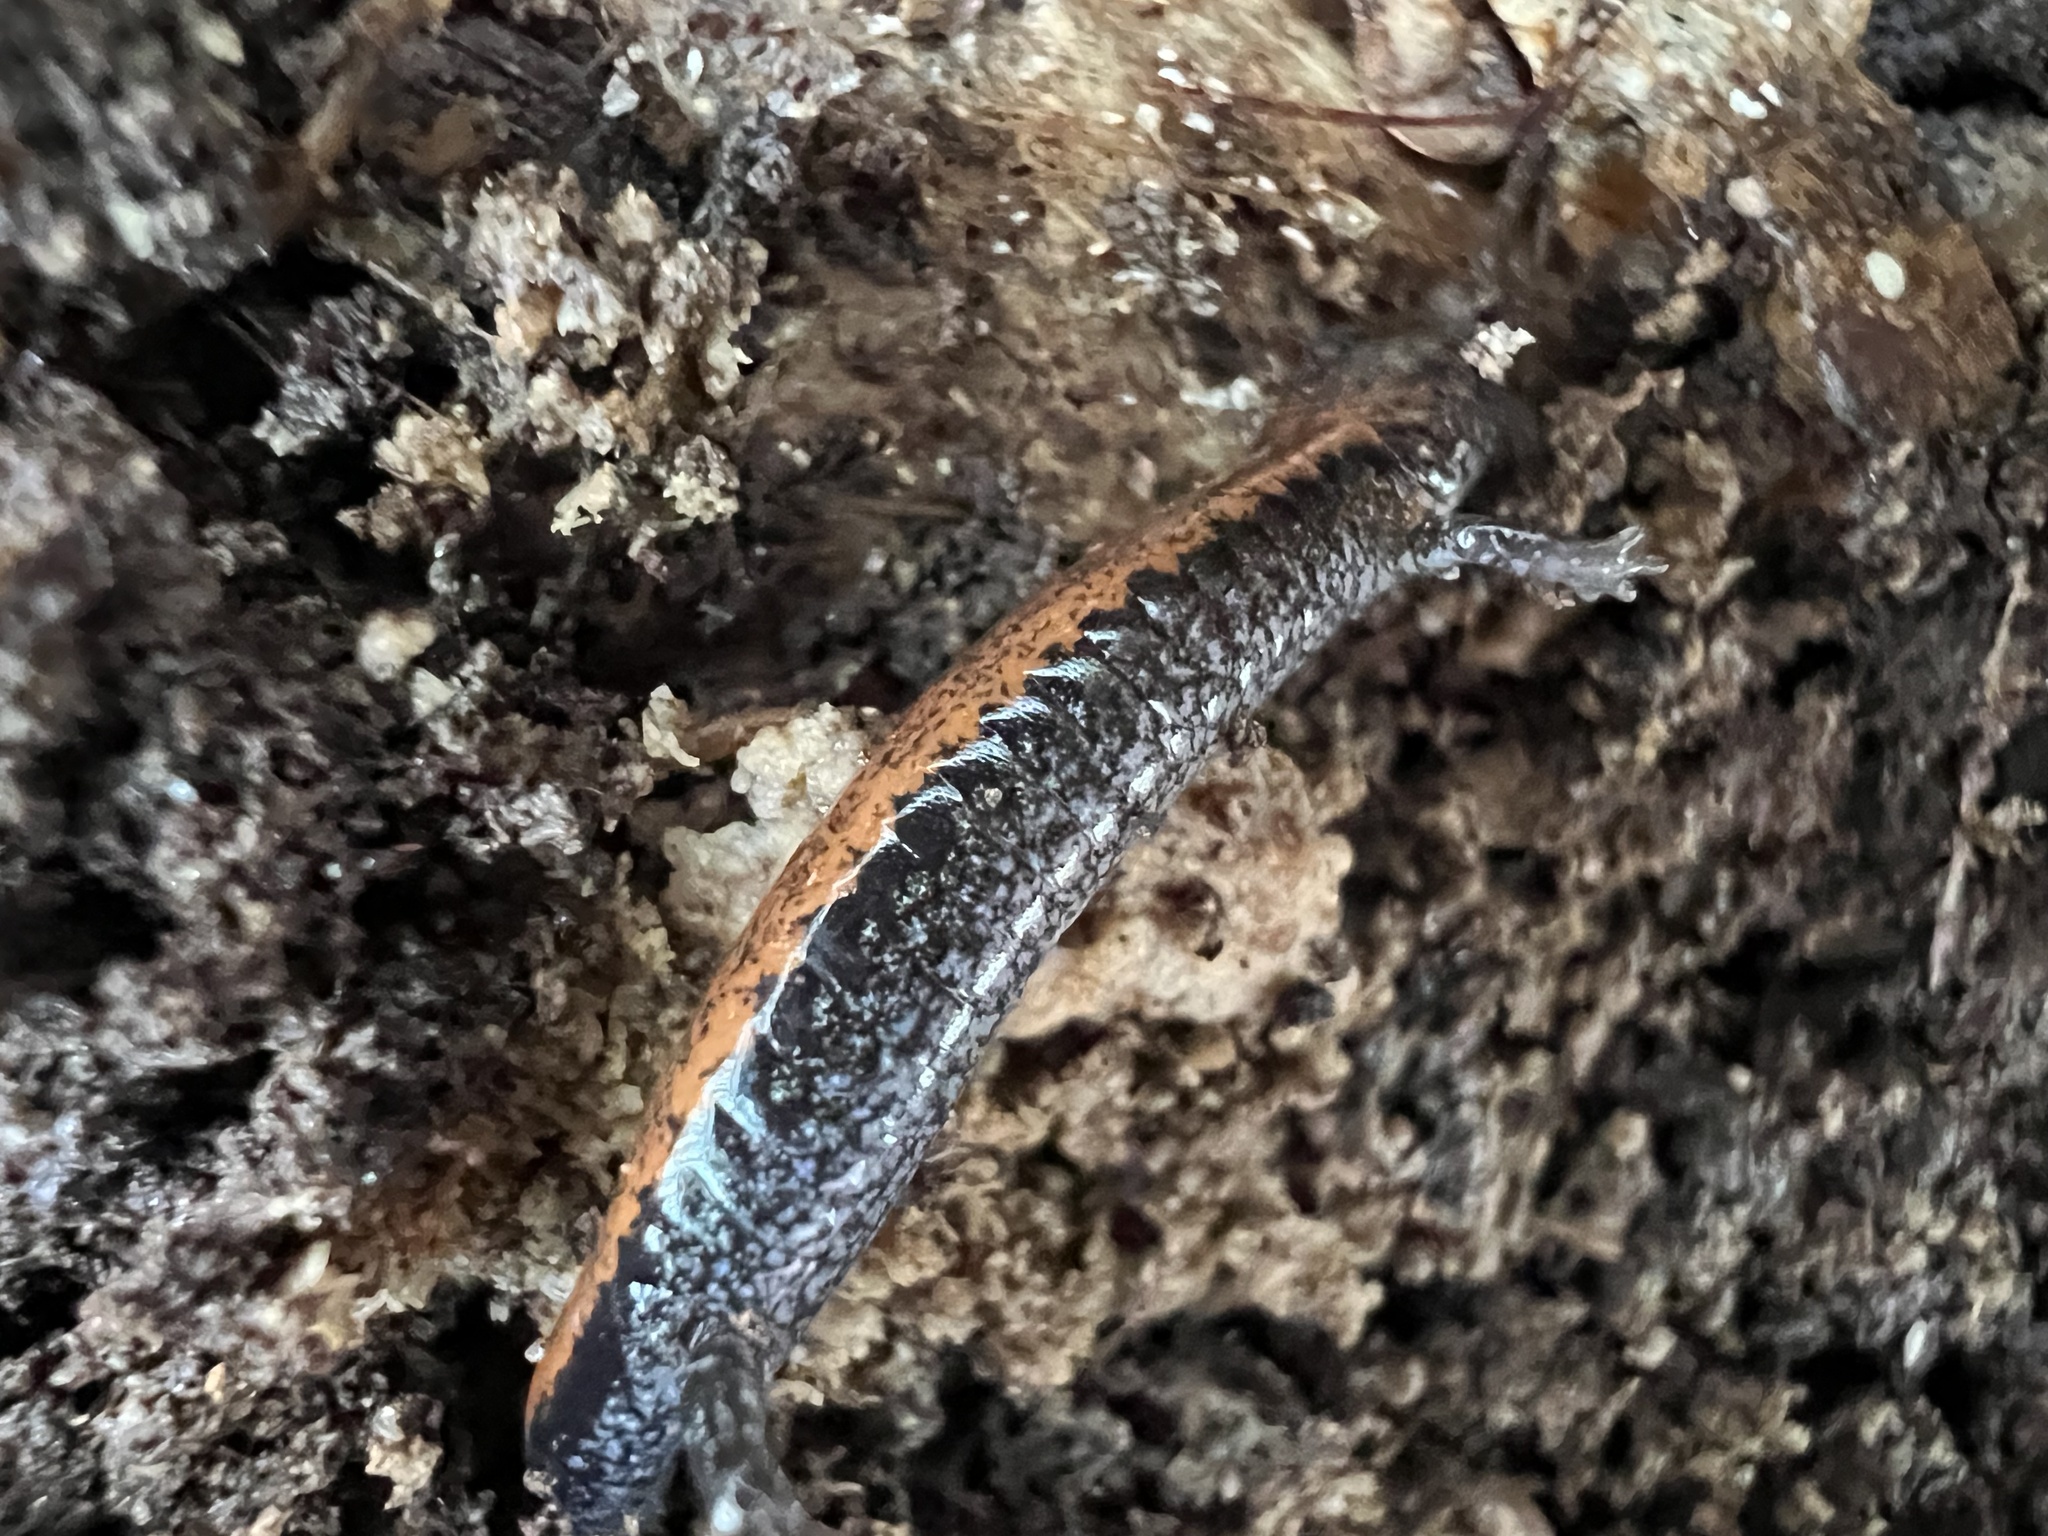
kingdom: Animalia
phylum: Chordata
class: Amphibia
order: Caudata
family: Plethodontidae
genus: Plethodon
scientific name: Plethodon cinereus
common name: Redback salamander
